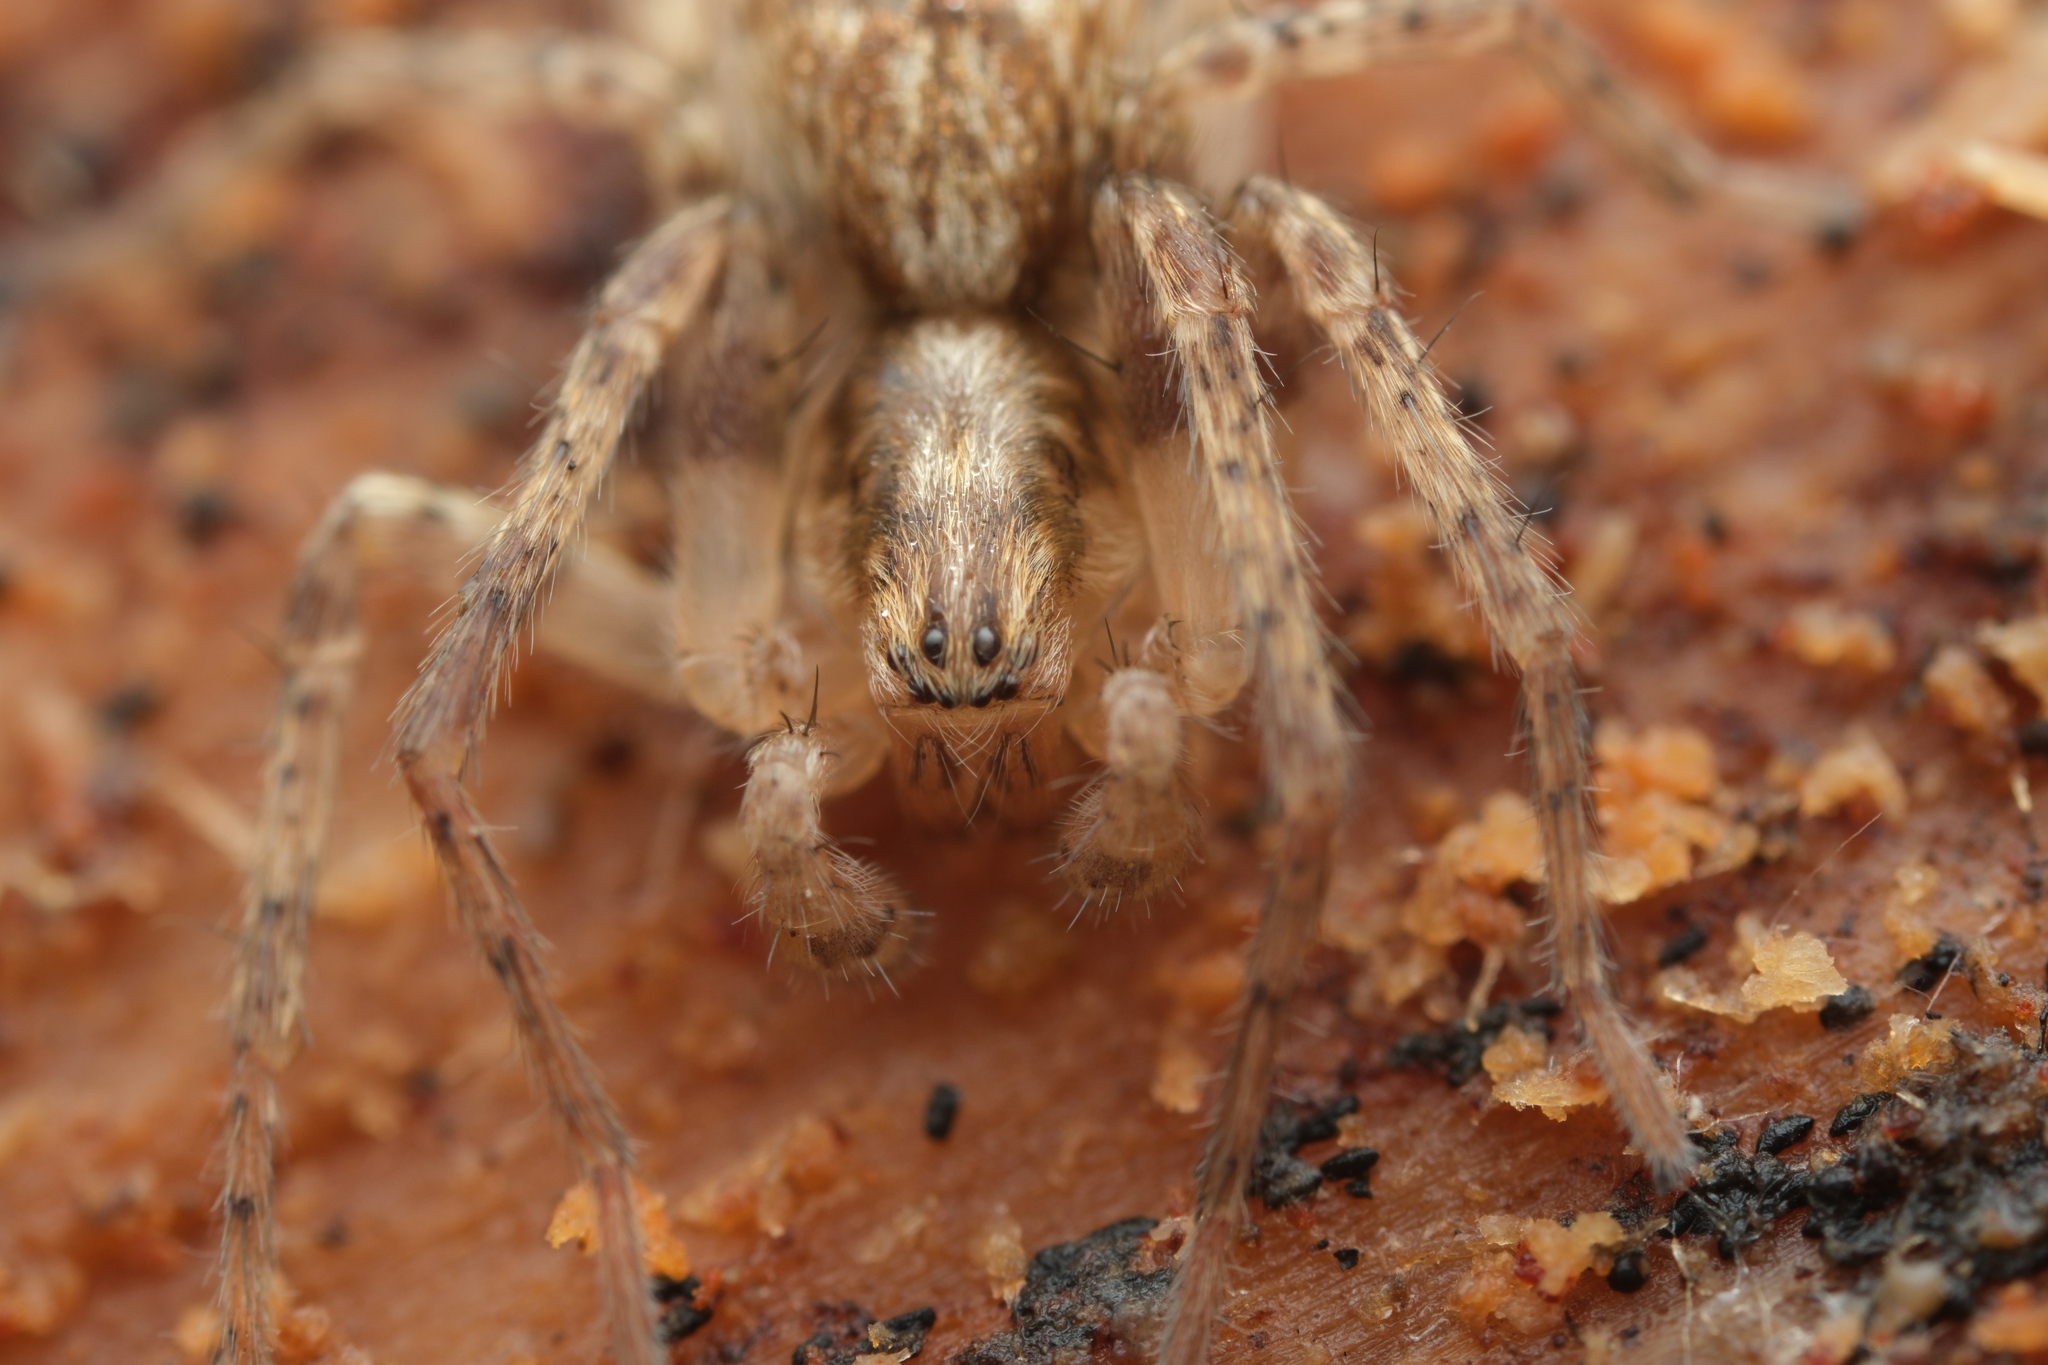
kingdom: Animalia
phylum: Arthropoda
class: Arachnida
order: Araneae
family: Anyphaenidae
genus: Anyphaena
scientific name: Anyphaena accentuata
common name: Buzzing spider
